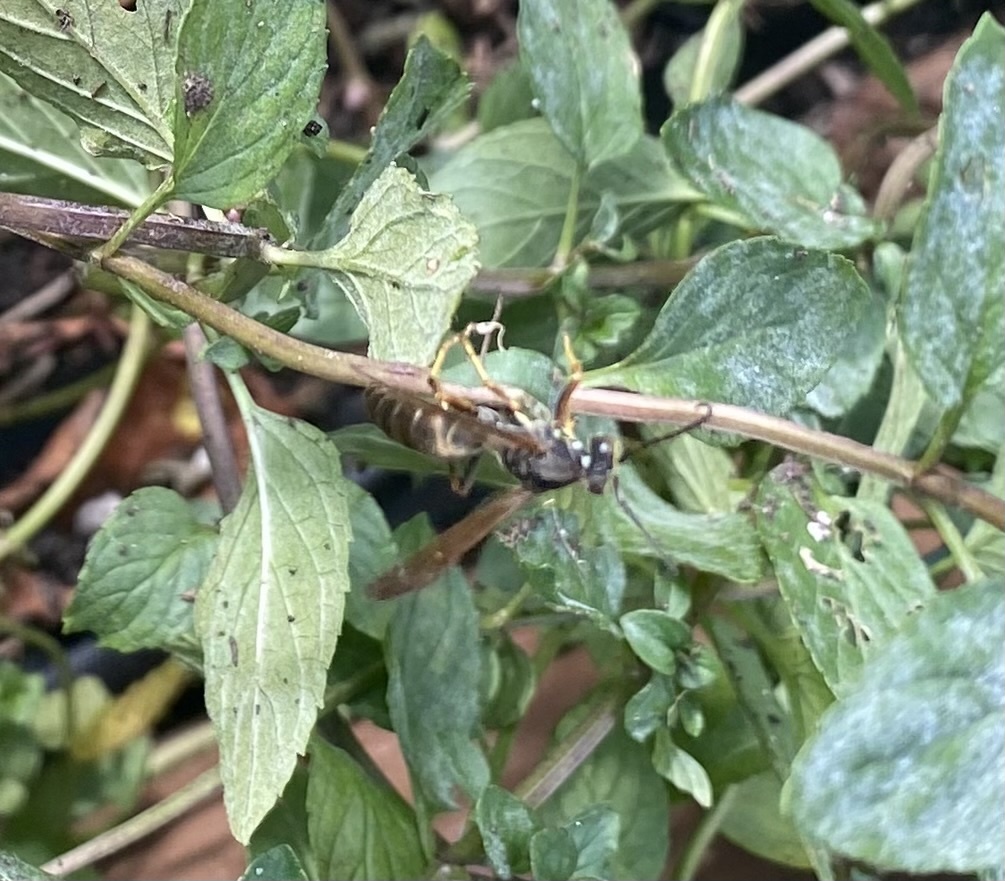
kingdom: Animalia
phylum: Arthropoda
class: Insecta
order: Hymenoptera
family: Eumenidae
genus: Polistes
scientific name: Polistes fuscatus
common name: Dark paper wasp
